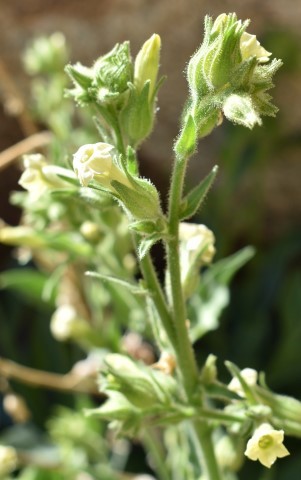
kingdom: Plantae
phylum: Tracheophyta
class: Magnoliopsida
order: Solanales
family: Solanaceae
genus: Nicotiana
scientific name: Nicotiana obtusifolia
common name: Desert tobacco
